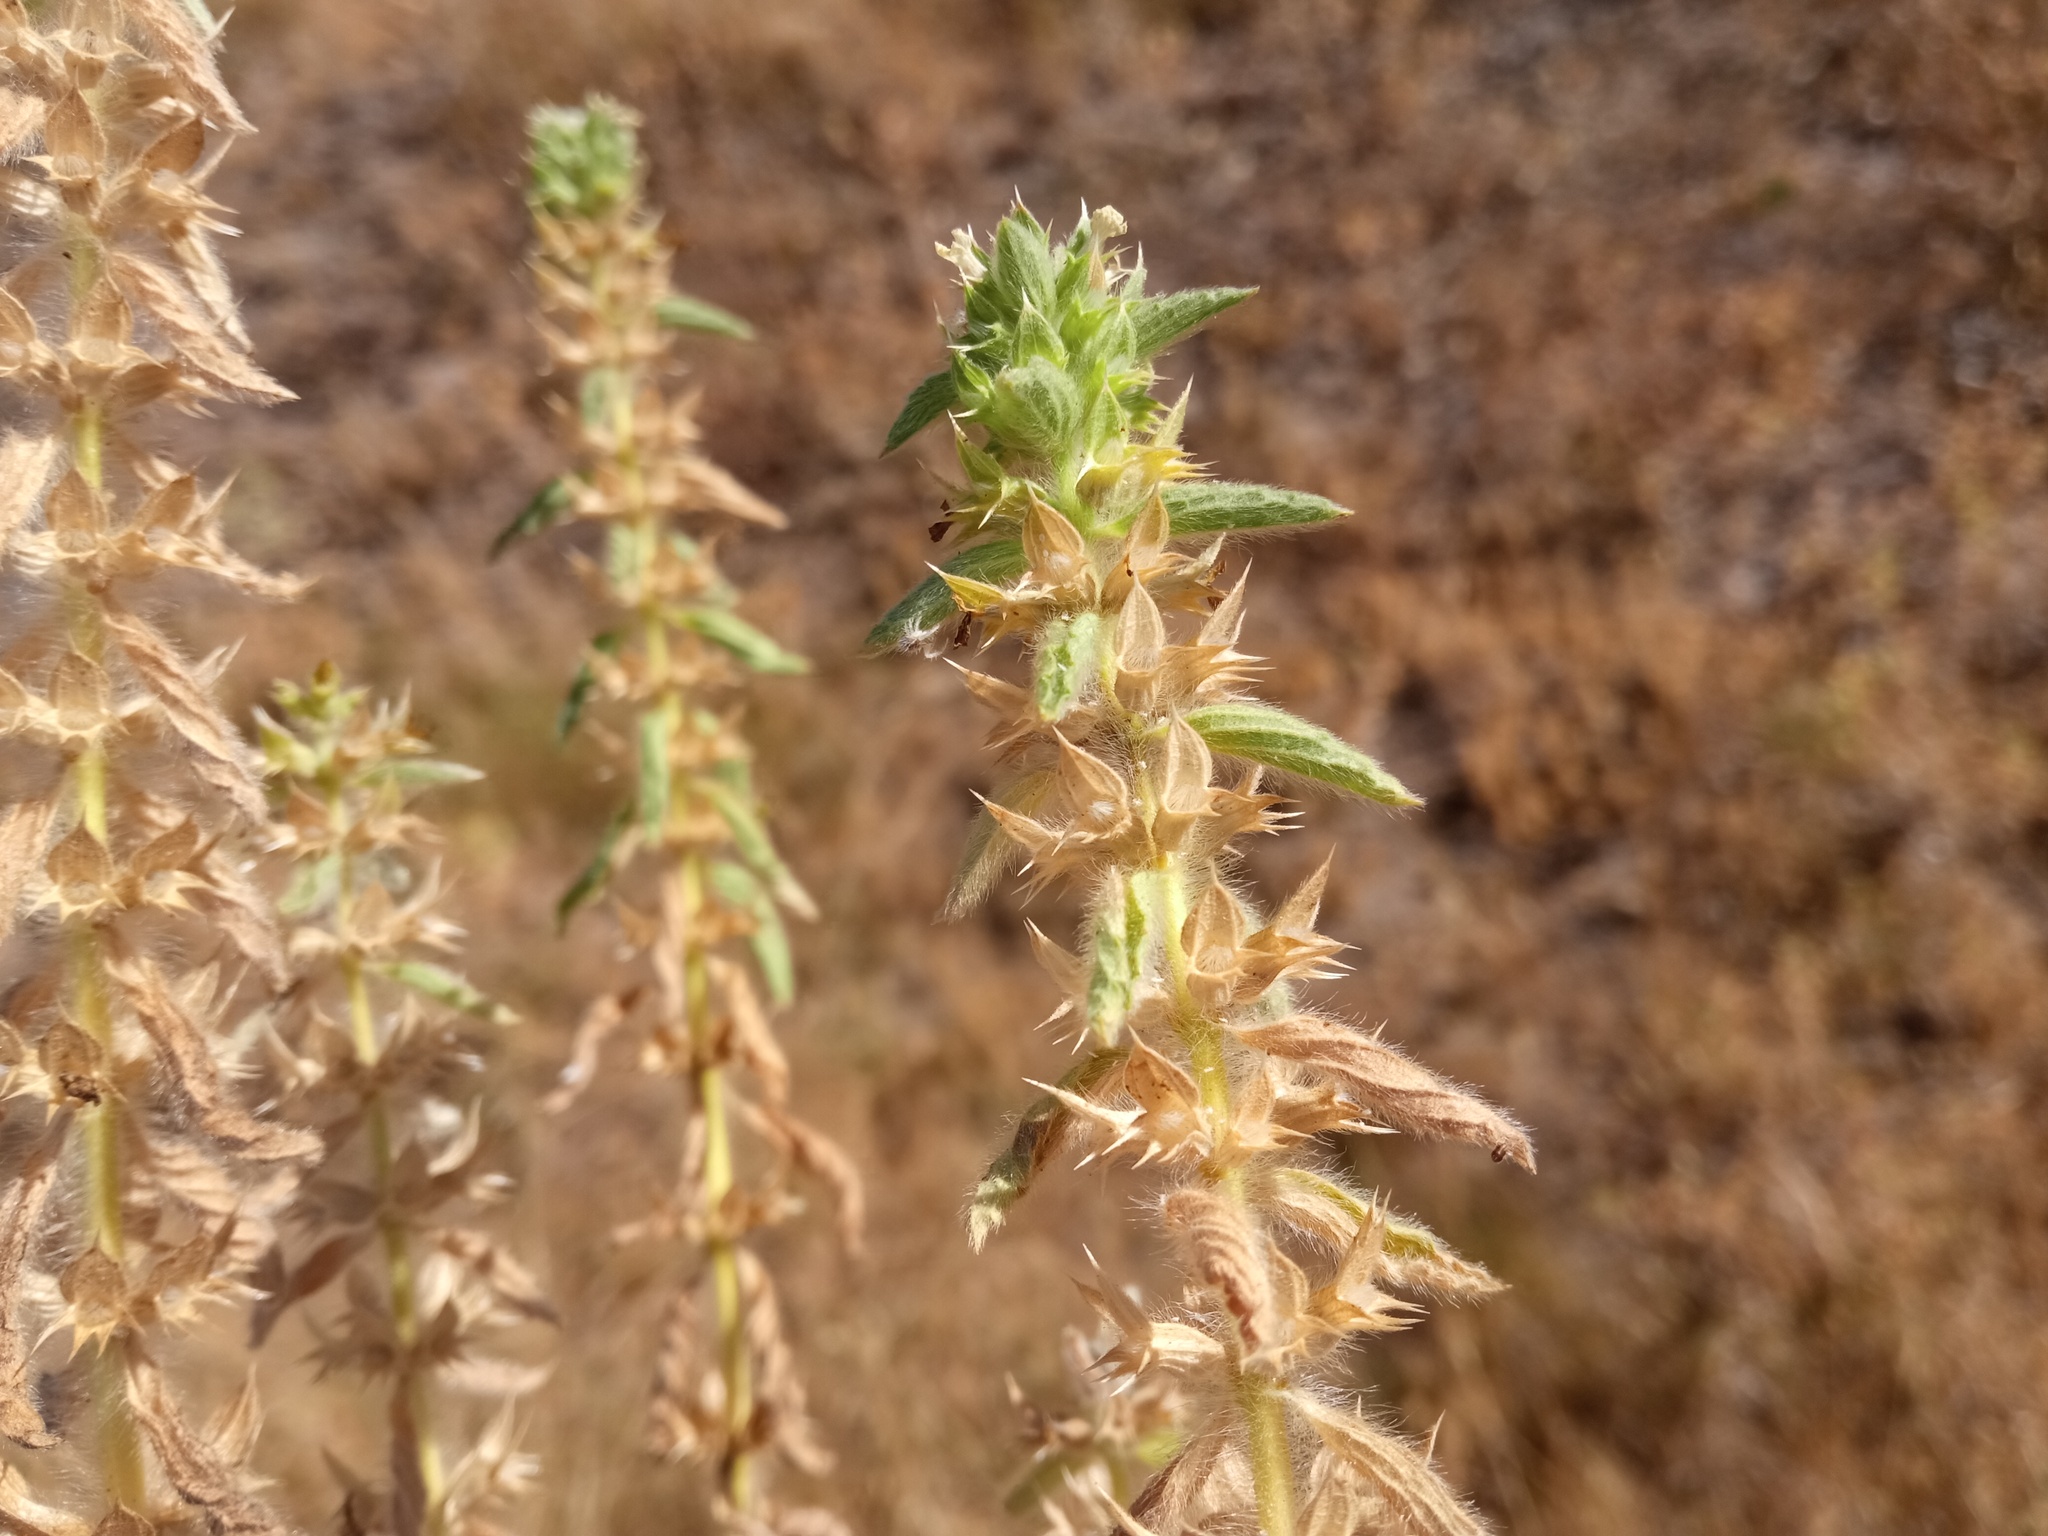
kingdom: Plantae
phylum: Tracheophyta
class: Magnoliopsida
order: Lamiales
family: Lamiaceae
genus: Sideritis
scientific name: Sideritis romana
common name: Simplebeak ironwort
